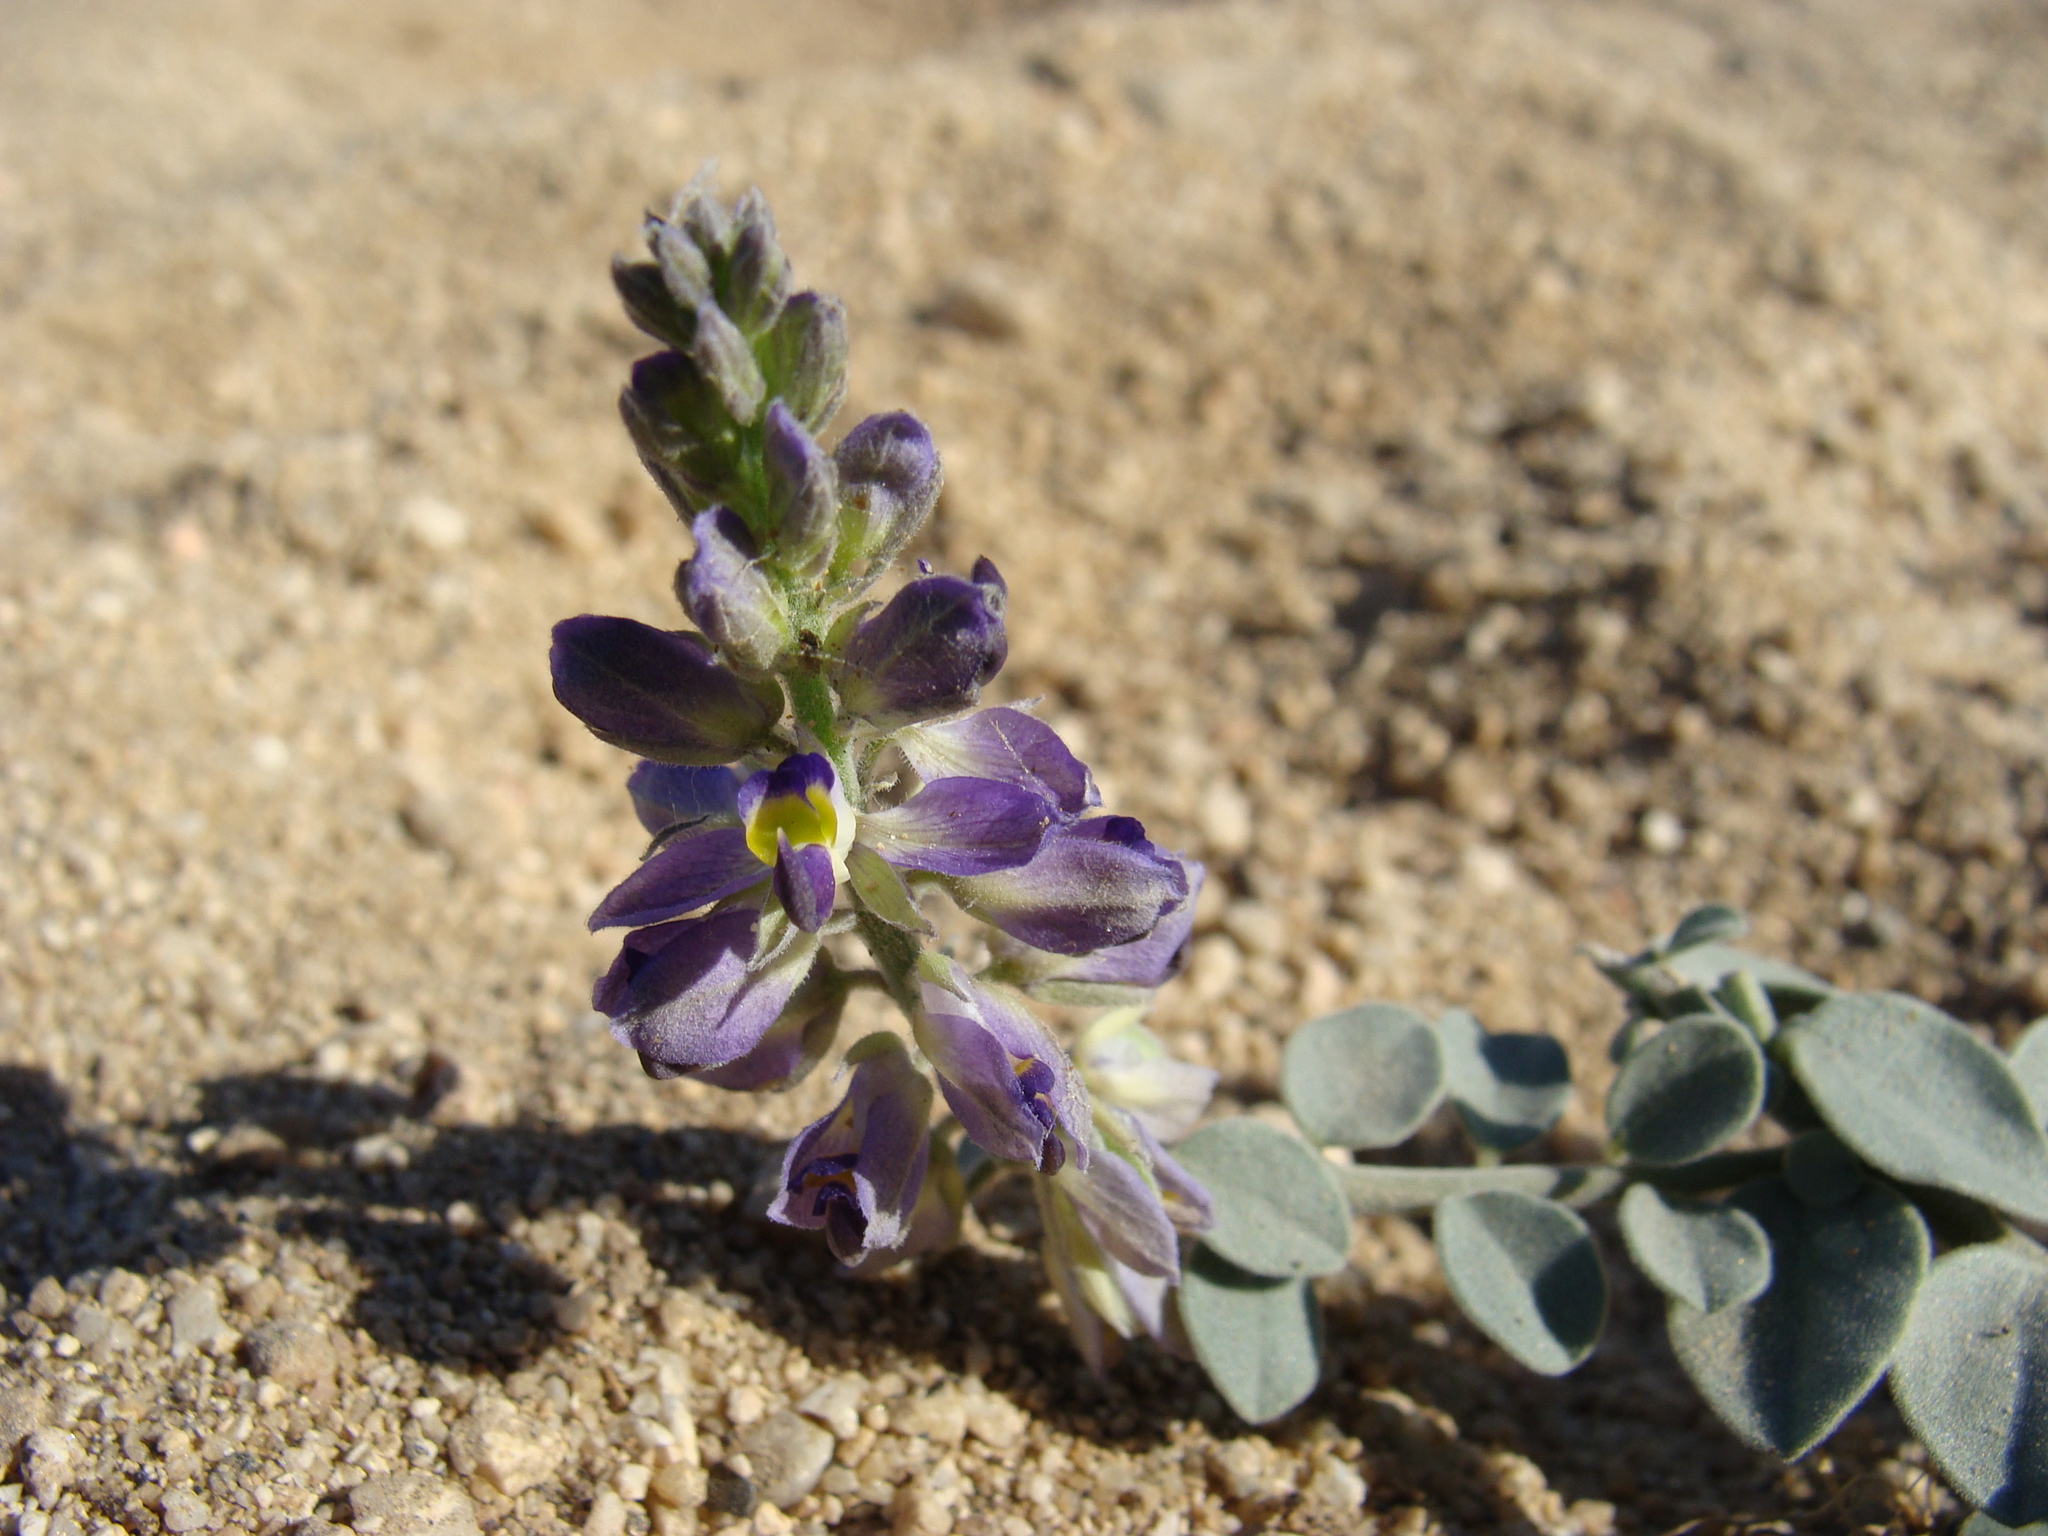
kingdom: Plantae
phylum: Tracheophyta
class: Magnoliopsida
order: Fabales
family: Polygalaceae
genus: Polygala
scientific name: Polygala xanti
